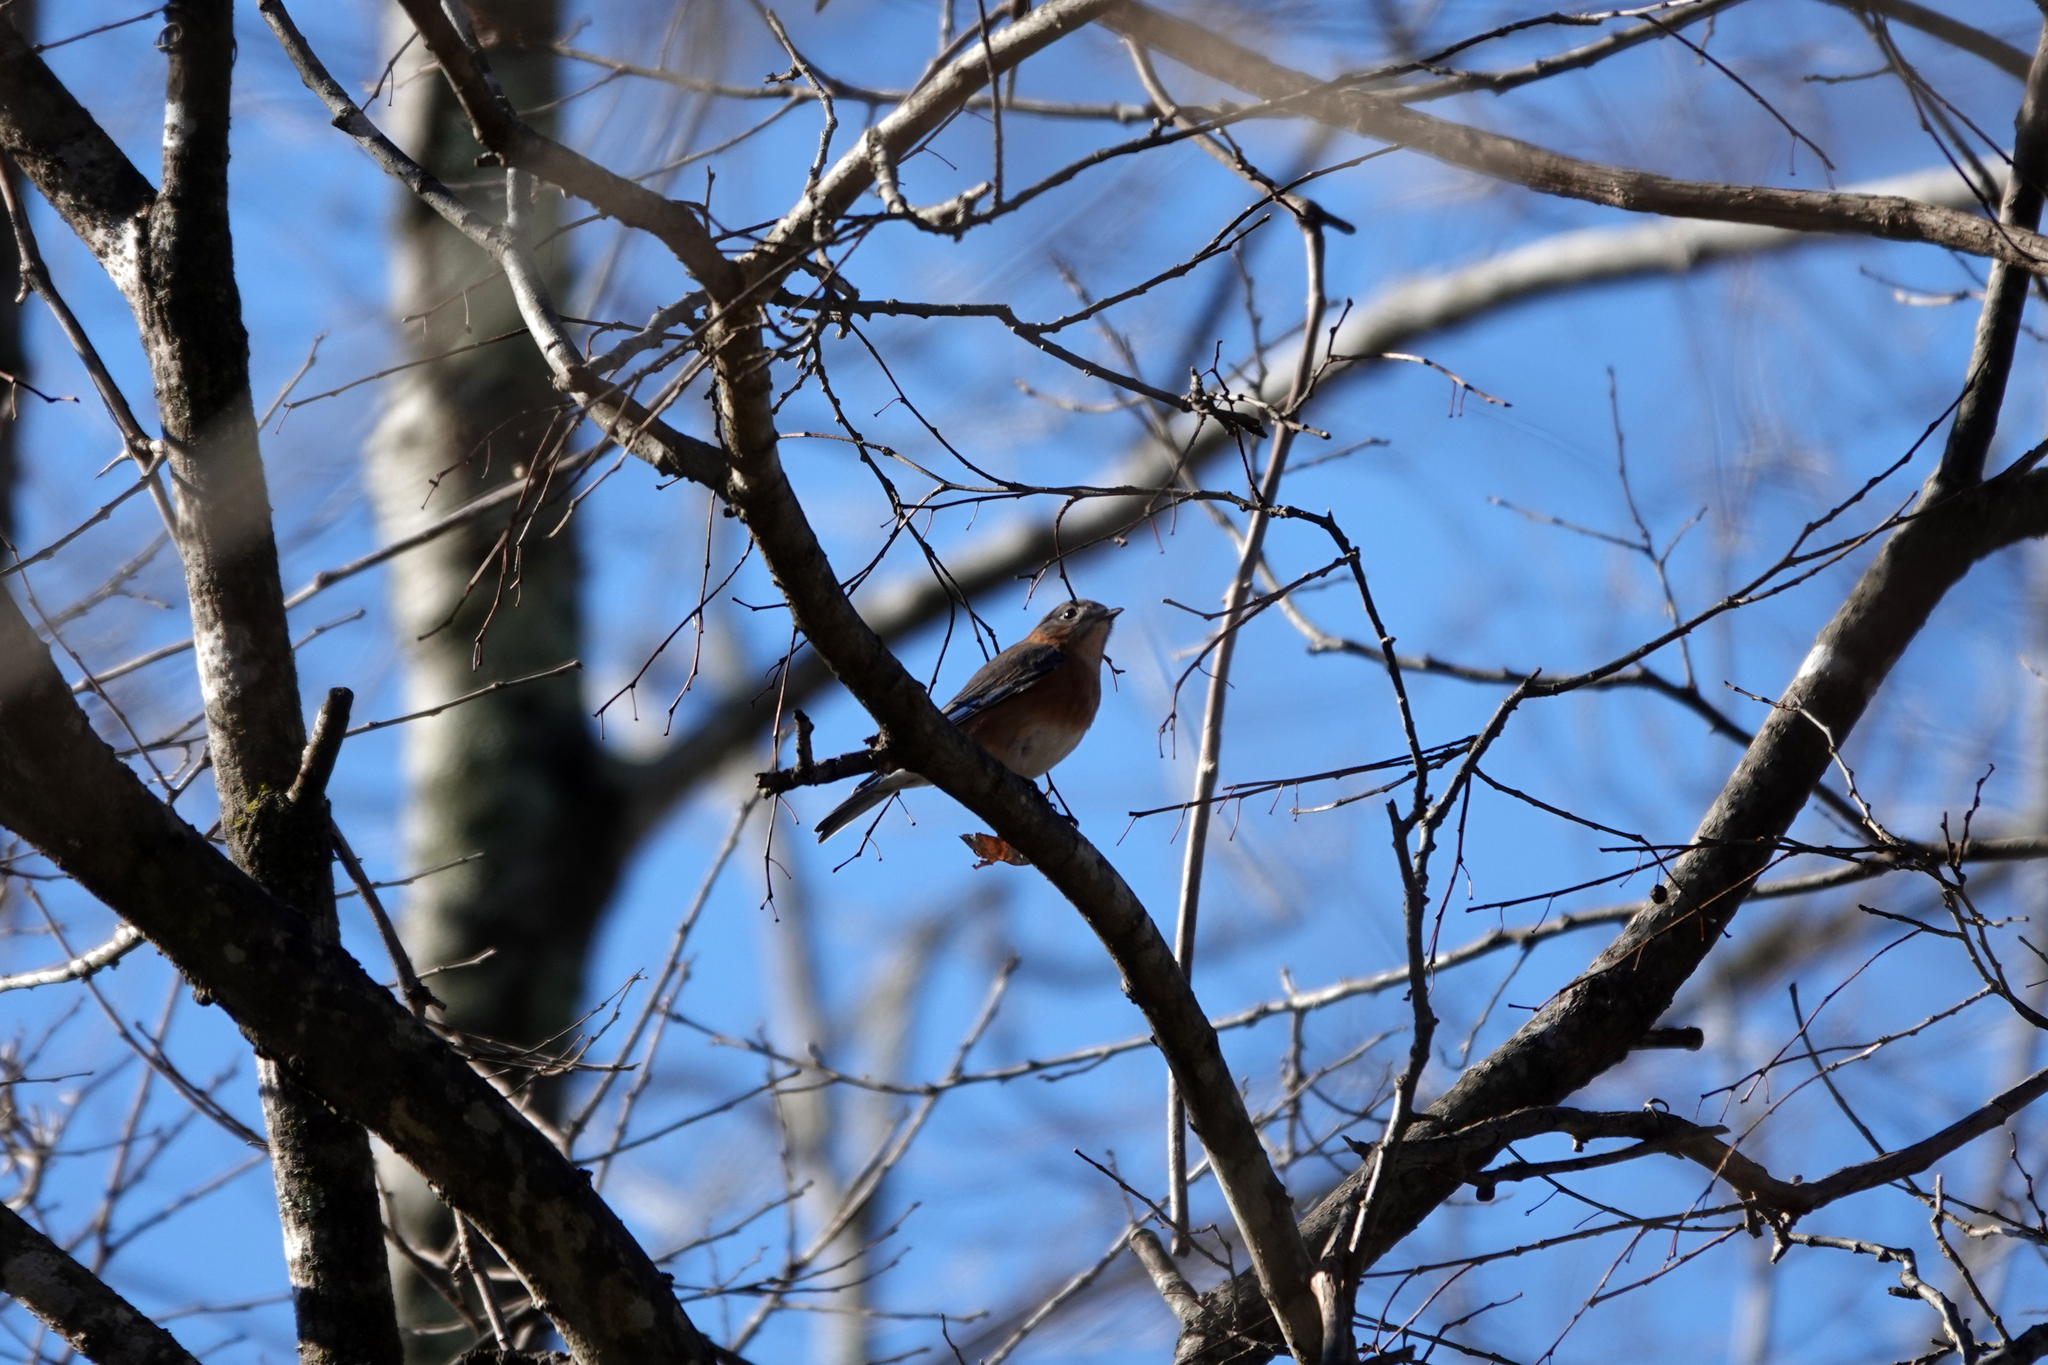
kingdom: Animalia
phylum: Chordata
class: Aves
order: Passeriformes
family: Turdidae
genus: Sialia
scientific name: Sialia sialis
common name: Eastern bluebird
